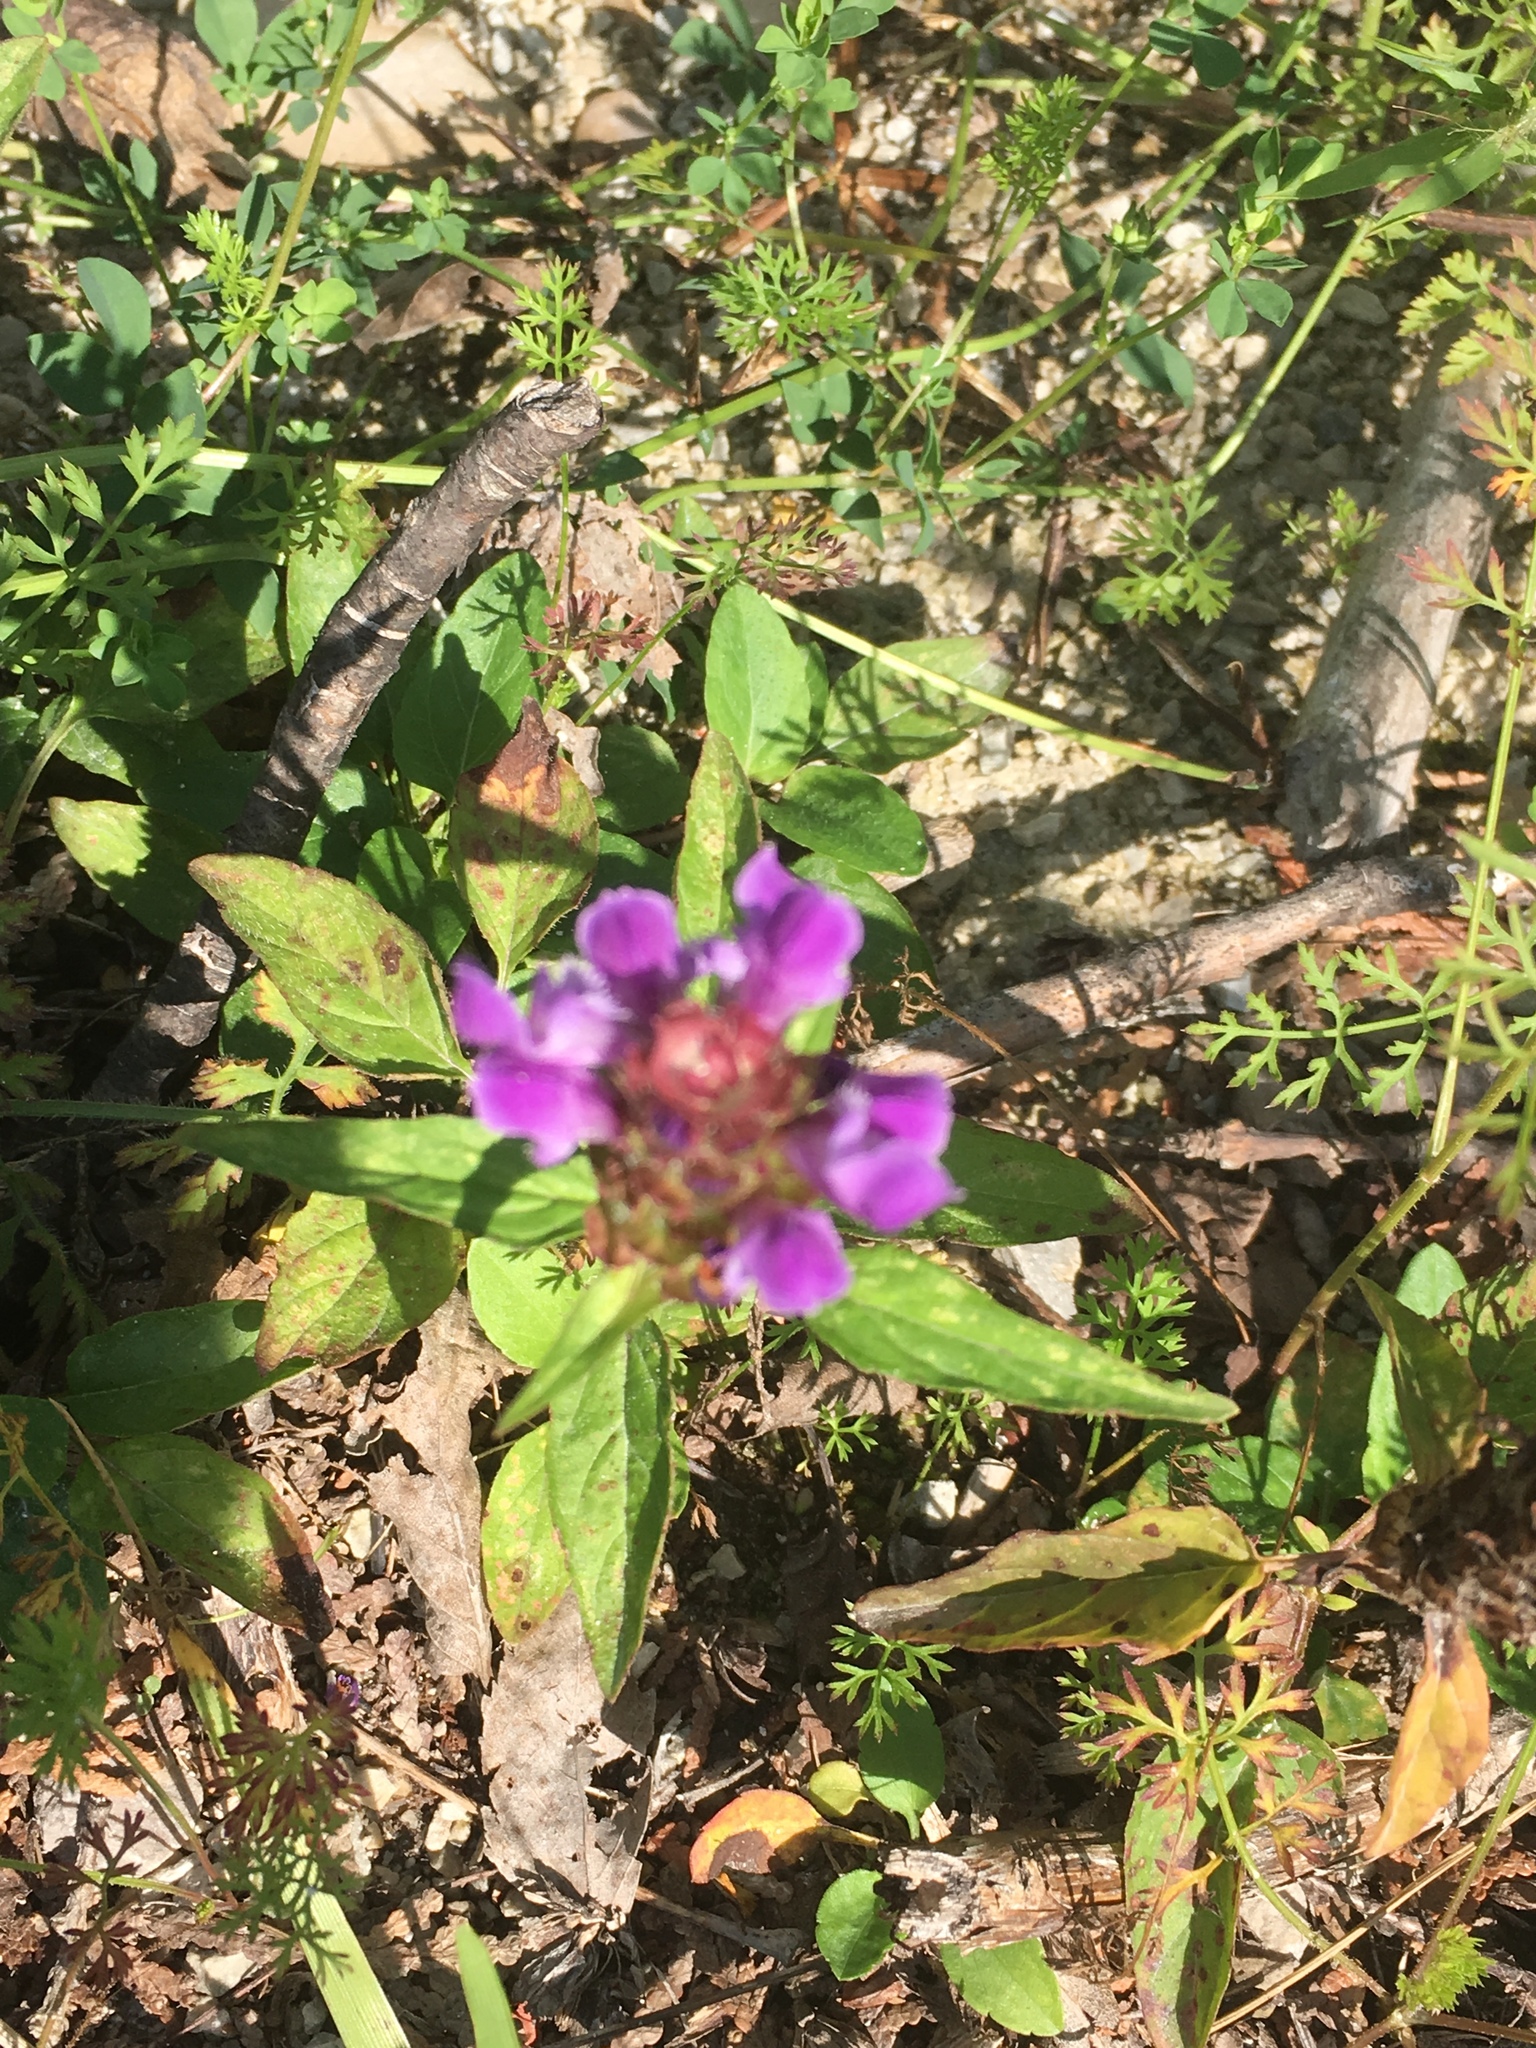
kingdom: Plantae
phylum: Tracheophyta
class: Magnoliopsida
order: Lamiales
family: Lamiaceae
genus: Prunella
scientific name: Prunella vulgaris
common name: Heal-all
